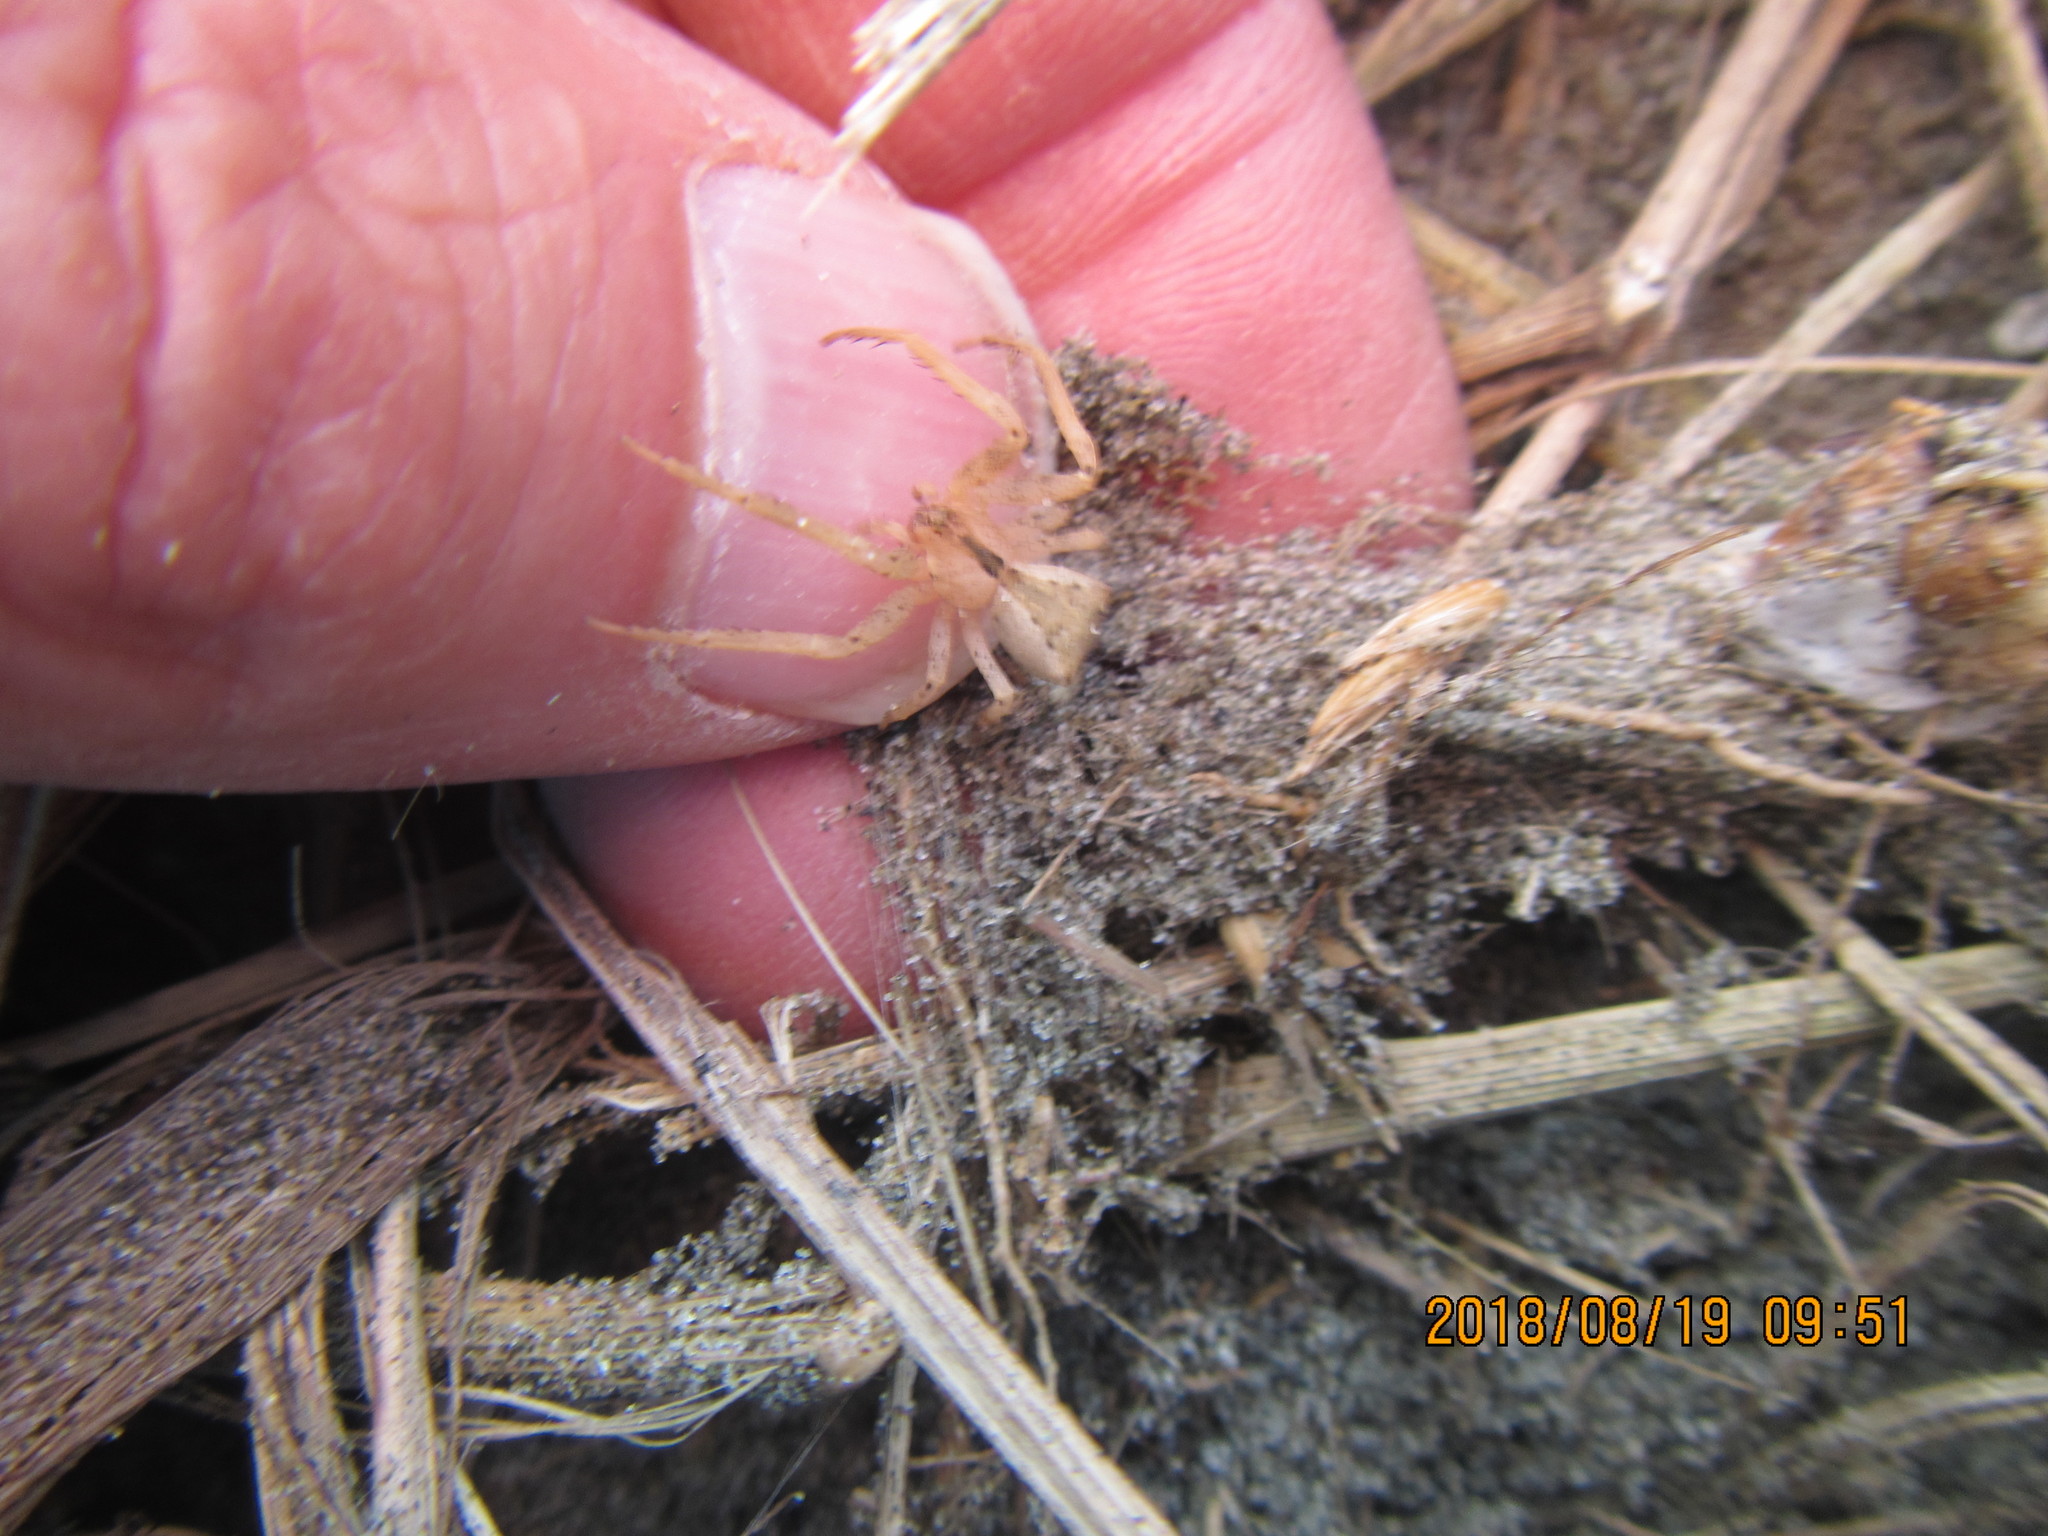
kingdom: Animalia
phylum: Arthropoda
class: Arachnida
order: Araneae
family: Thomisidae
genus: Sidymella
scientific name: Sidymella trapezia
